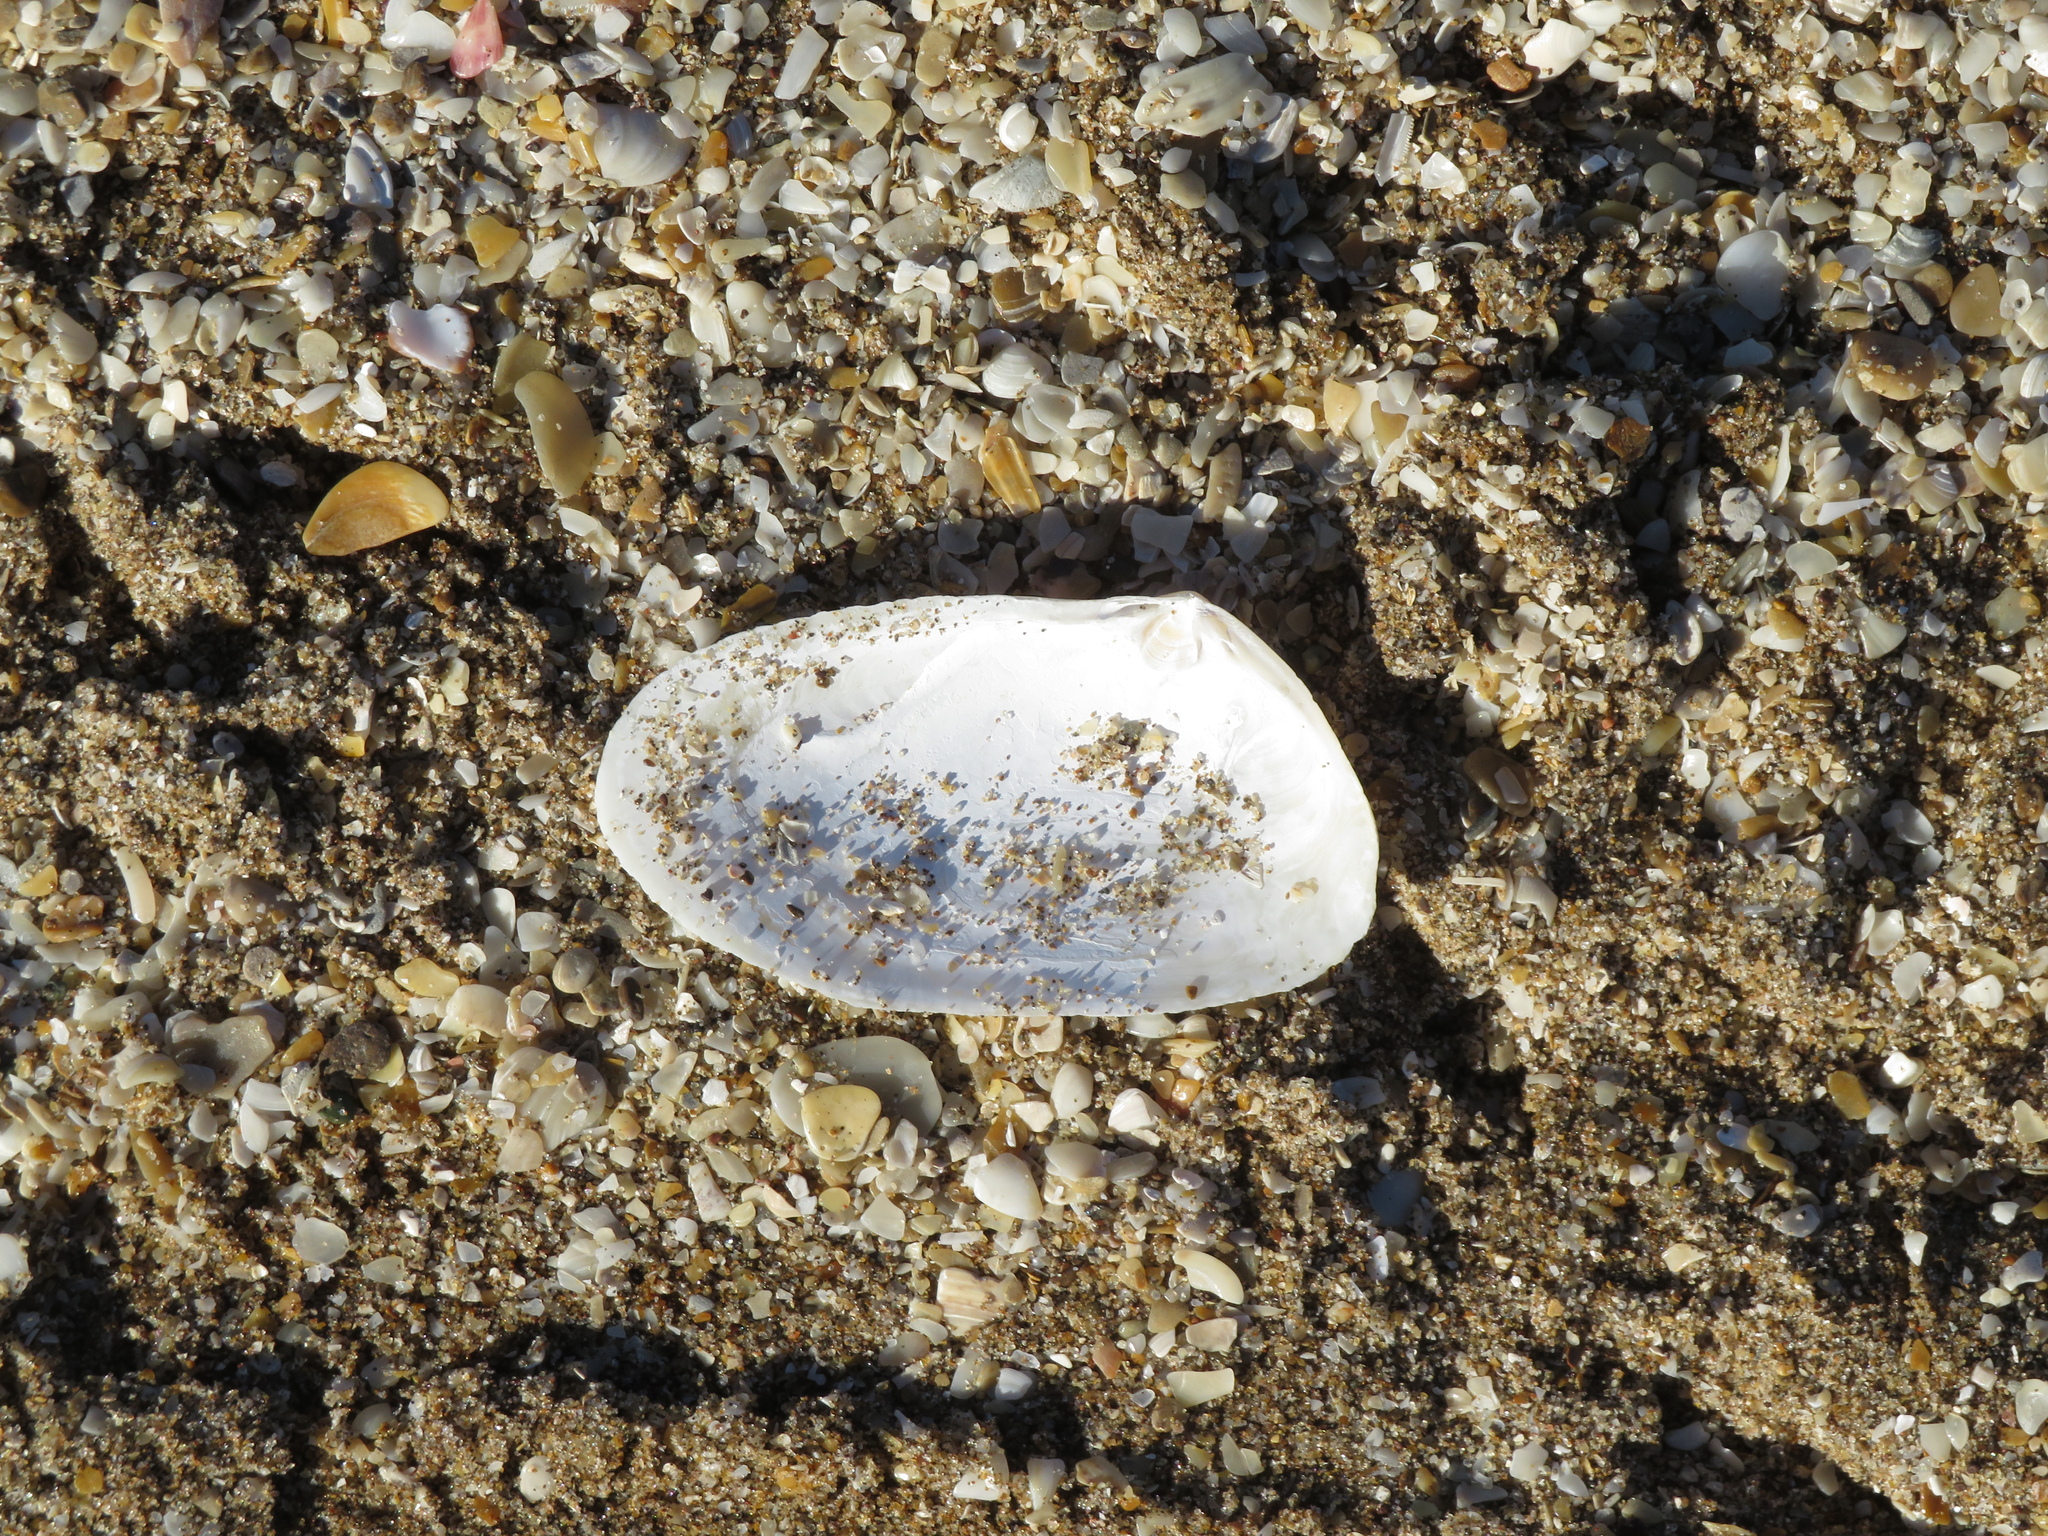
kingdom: Animalia
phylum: Mollusca
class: Bivalvia
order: Venerida
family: Mesodesmatidae
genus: Amarilladesma
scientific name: Amarilladesma mactroides
